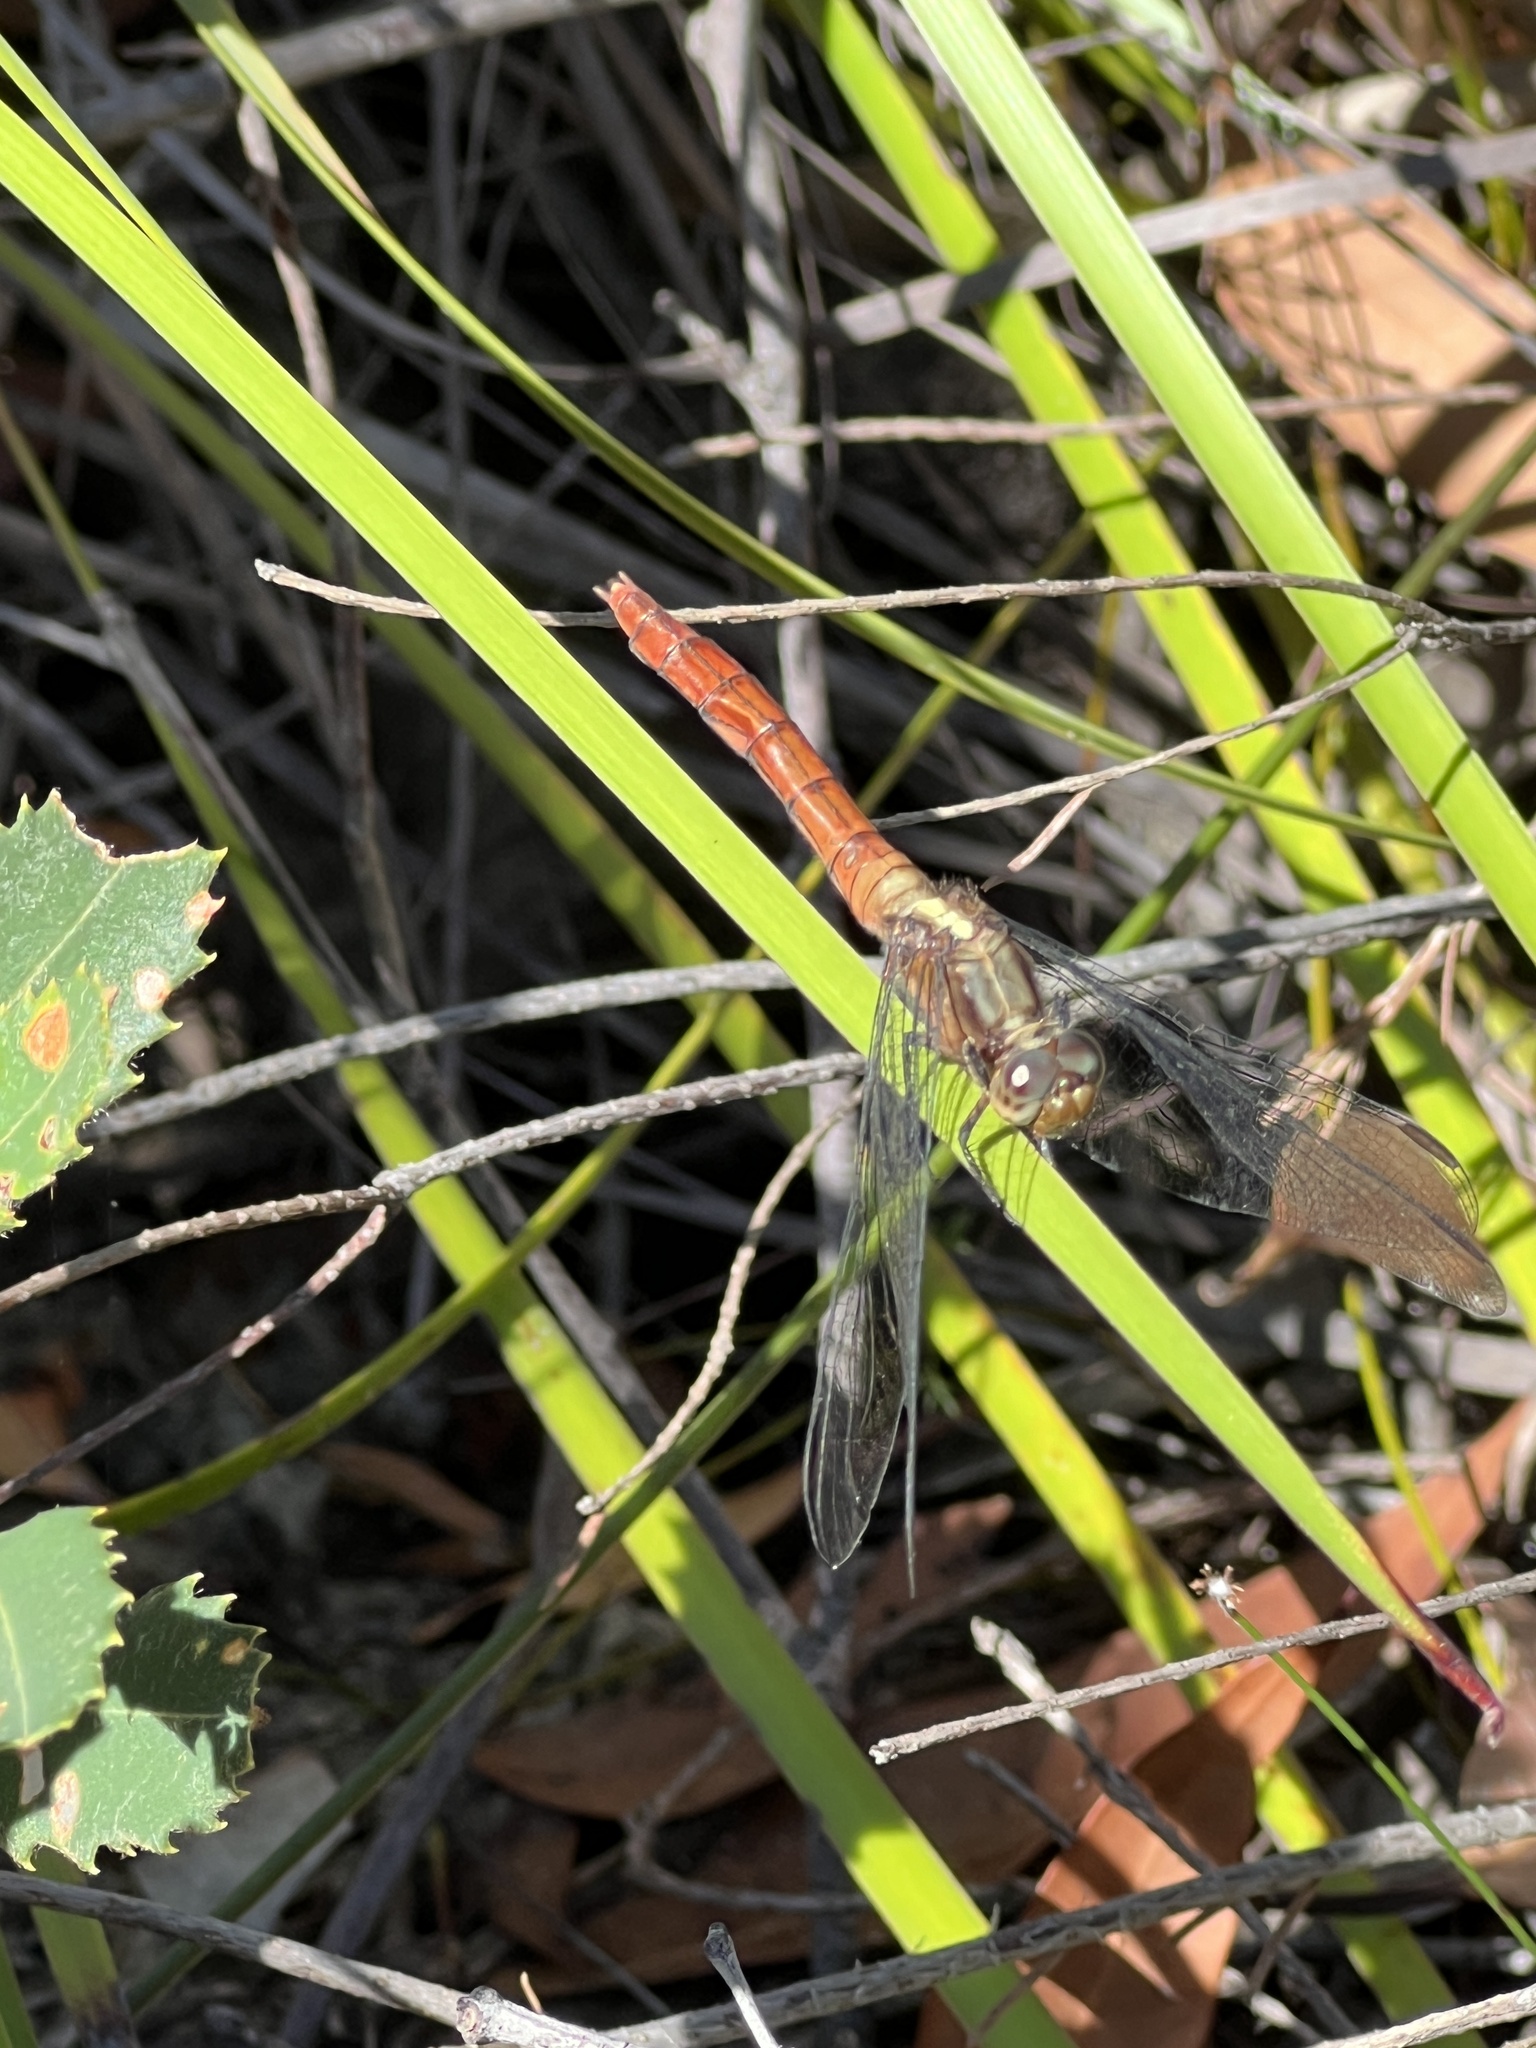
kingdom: Animalia
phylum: Arthropoda
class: Insecta
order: Odonata
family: Libellulidae
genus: Orthetrum
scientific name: Orthetrum villosovittatum
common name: Firery skimmer
